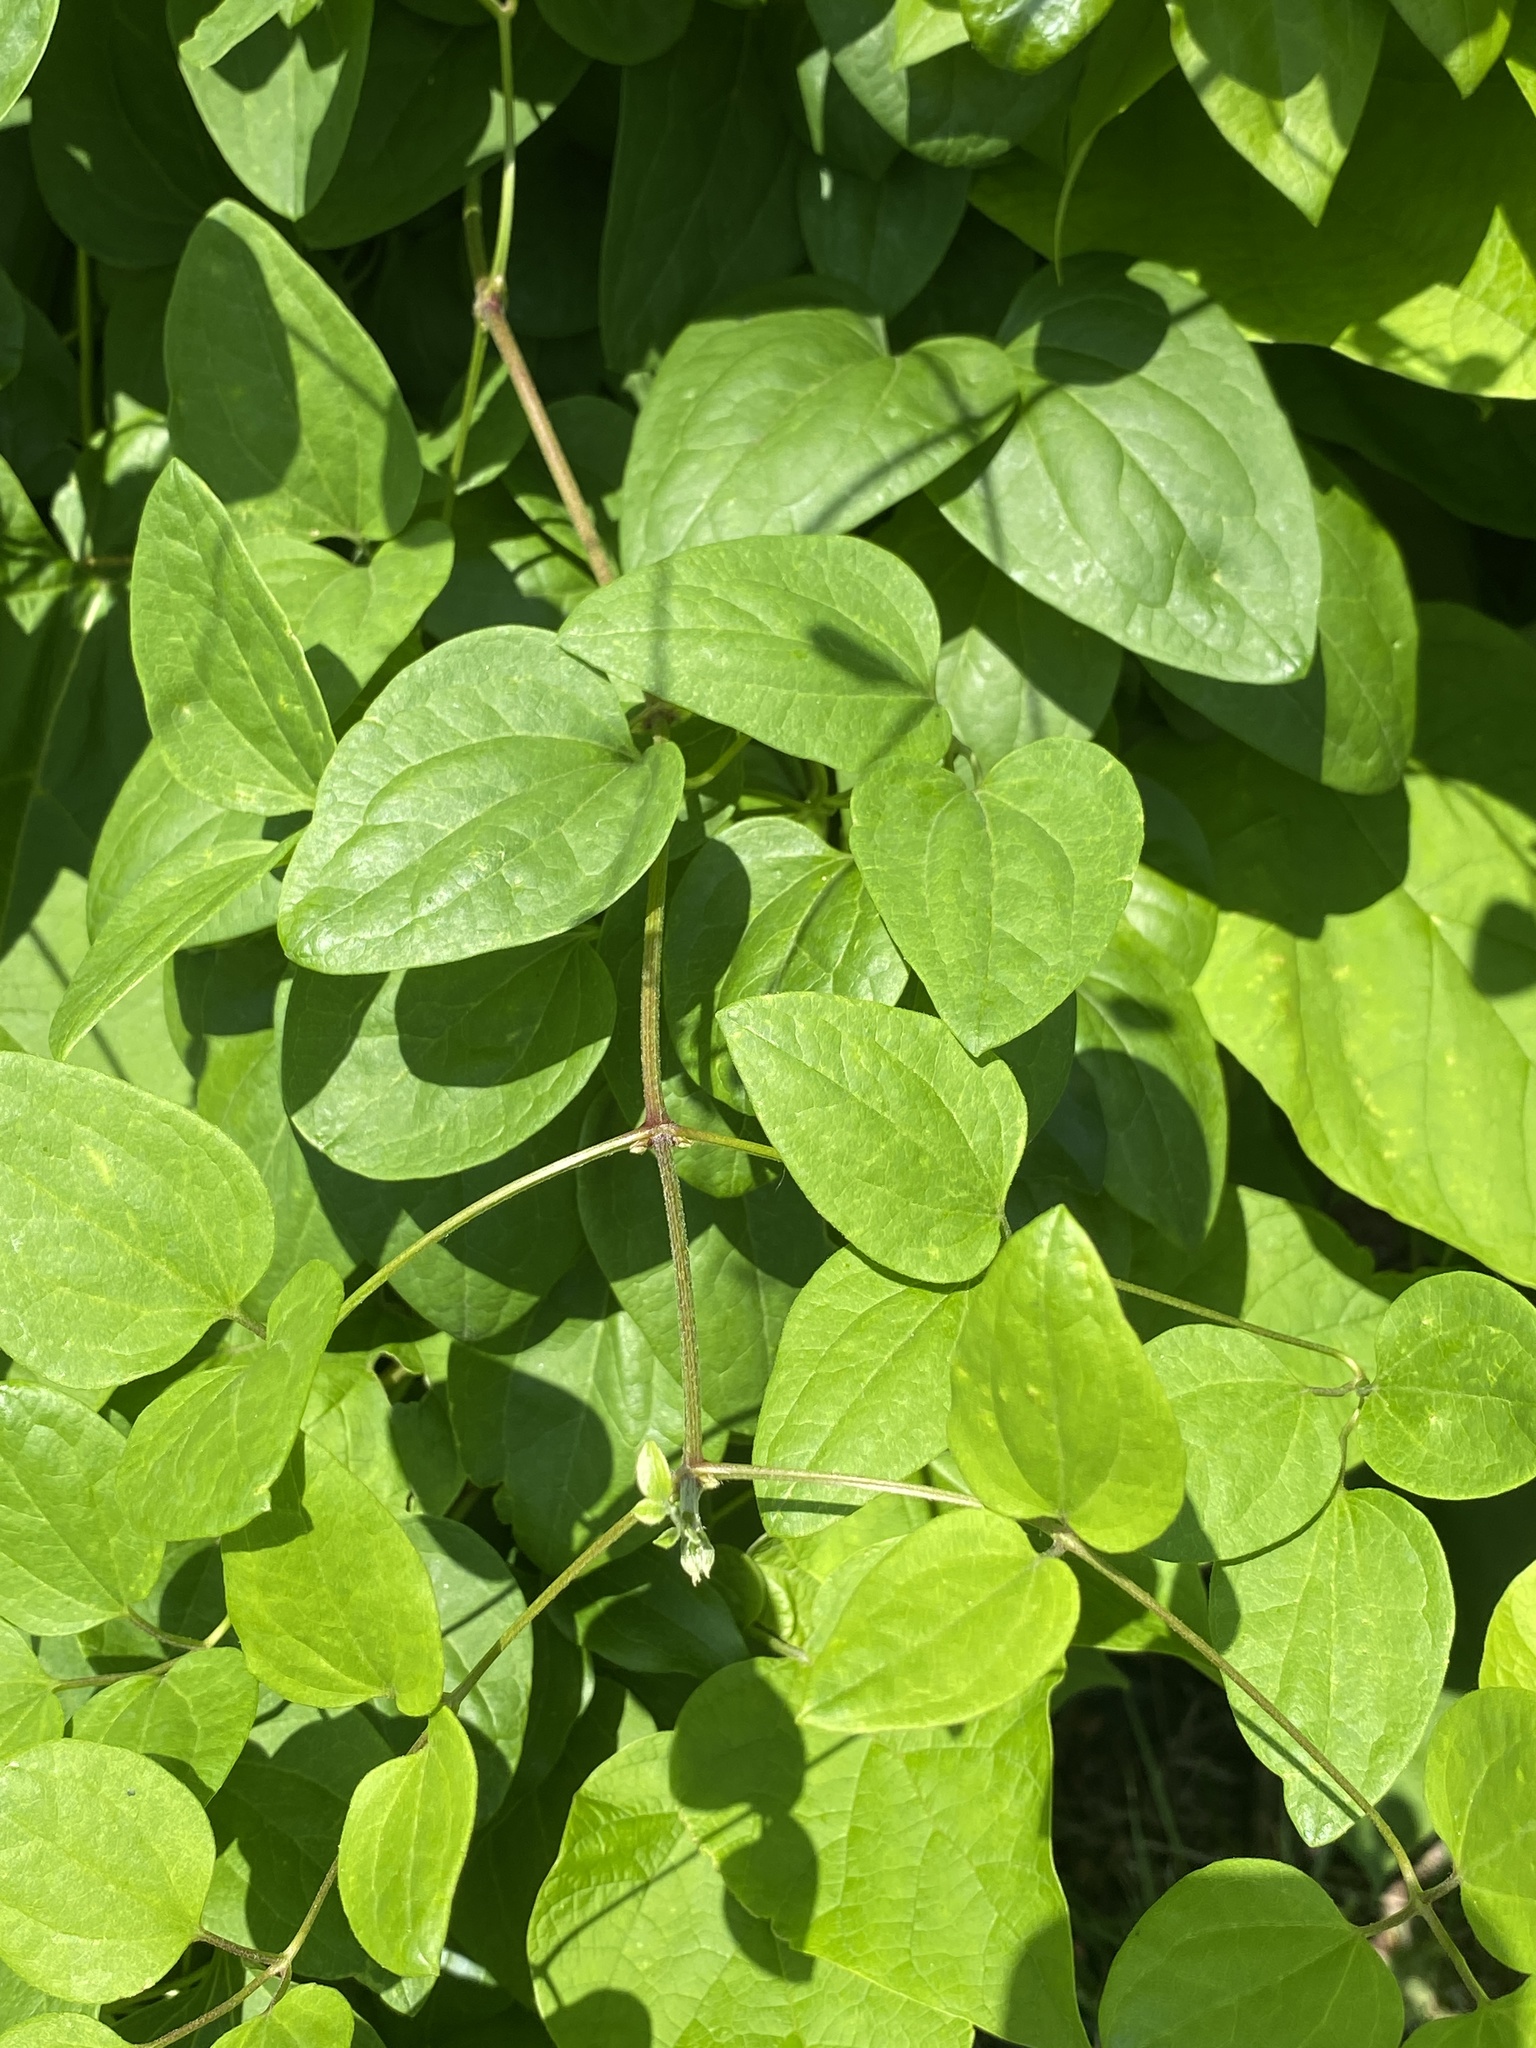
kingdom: Plantae
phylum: Tracheophyta
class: Magnoliopsida
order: Ranunculales
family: Ranunculaceae
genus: Clematis
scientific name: Clematis terniflora
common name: Sweet autumn clematis
